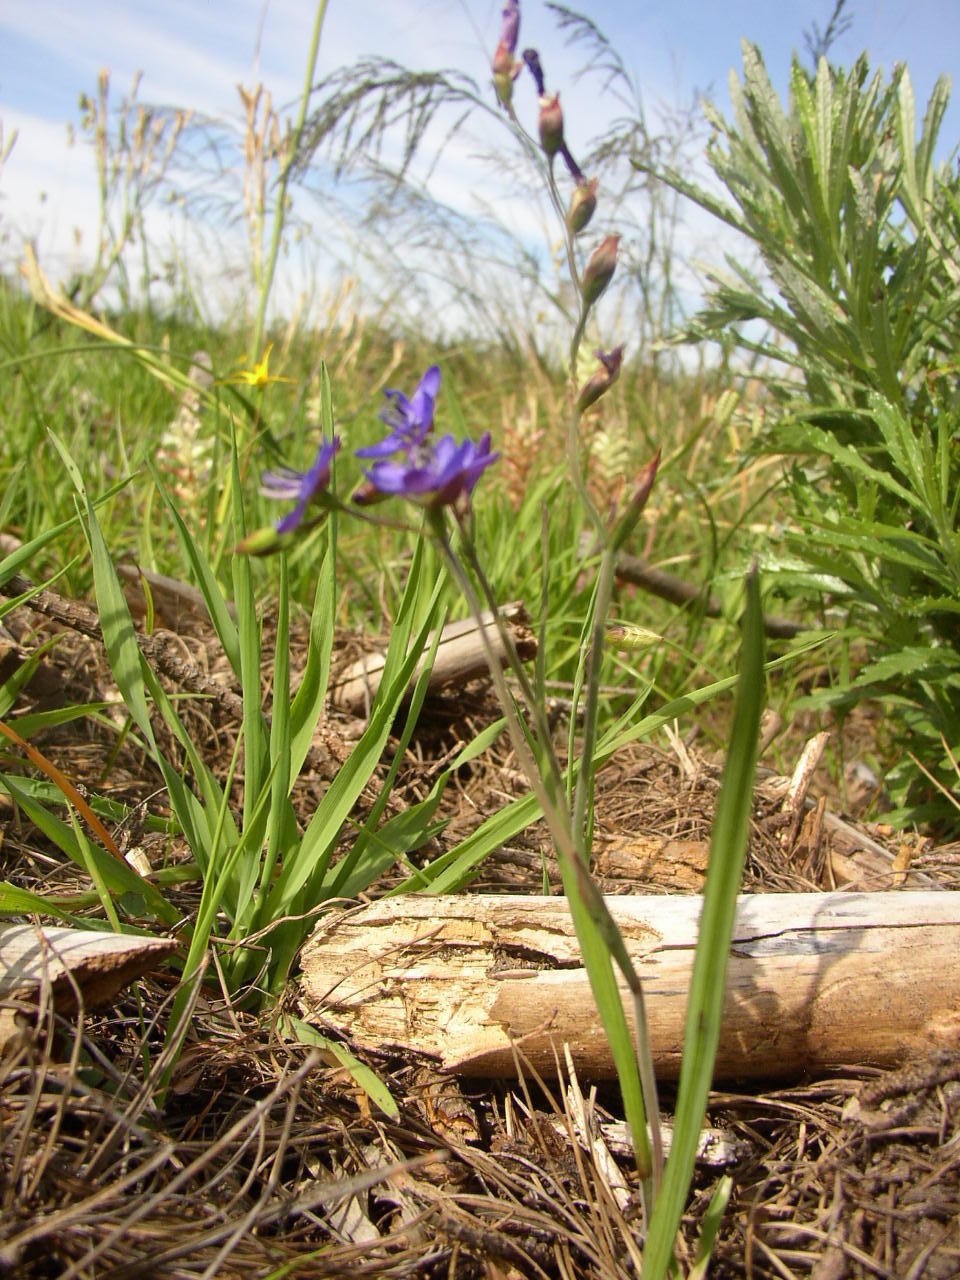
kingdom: Plantae
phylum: Tracheophyta
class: Liliopsida
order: Asparagales
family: Iridaceae
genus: Geissorhiza
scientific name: Geissorhiza aspera
